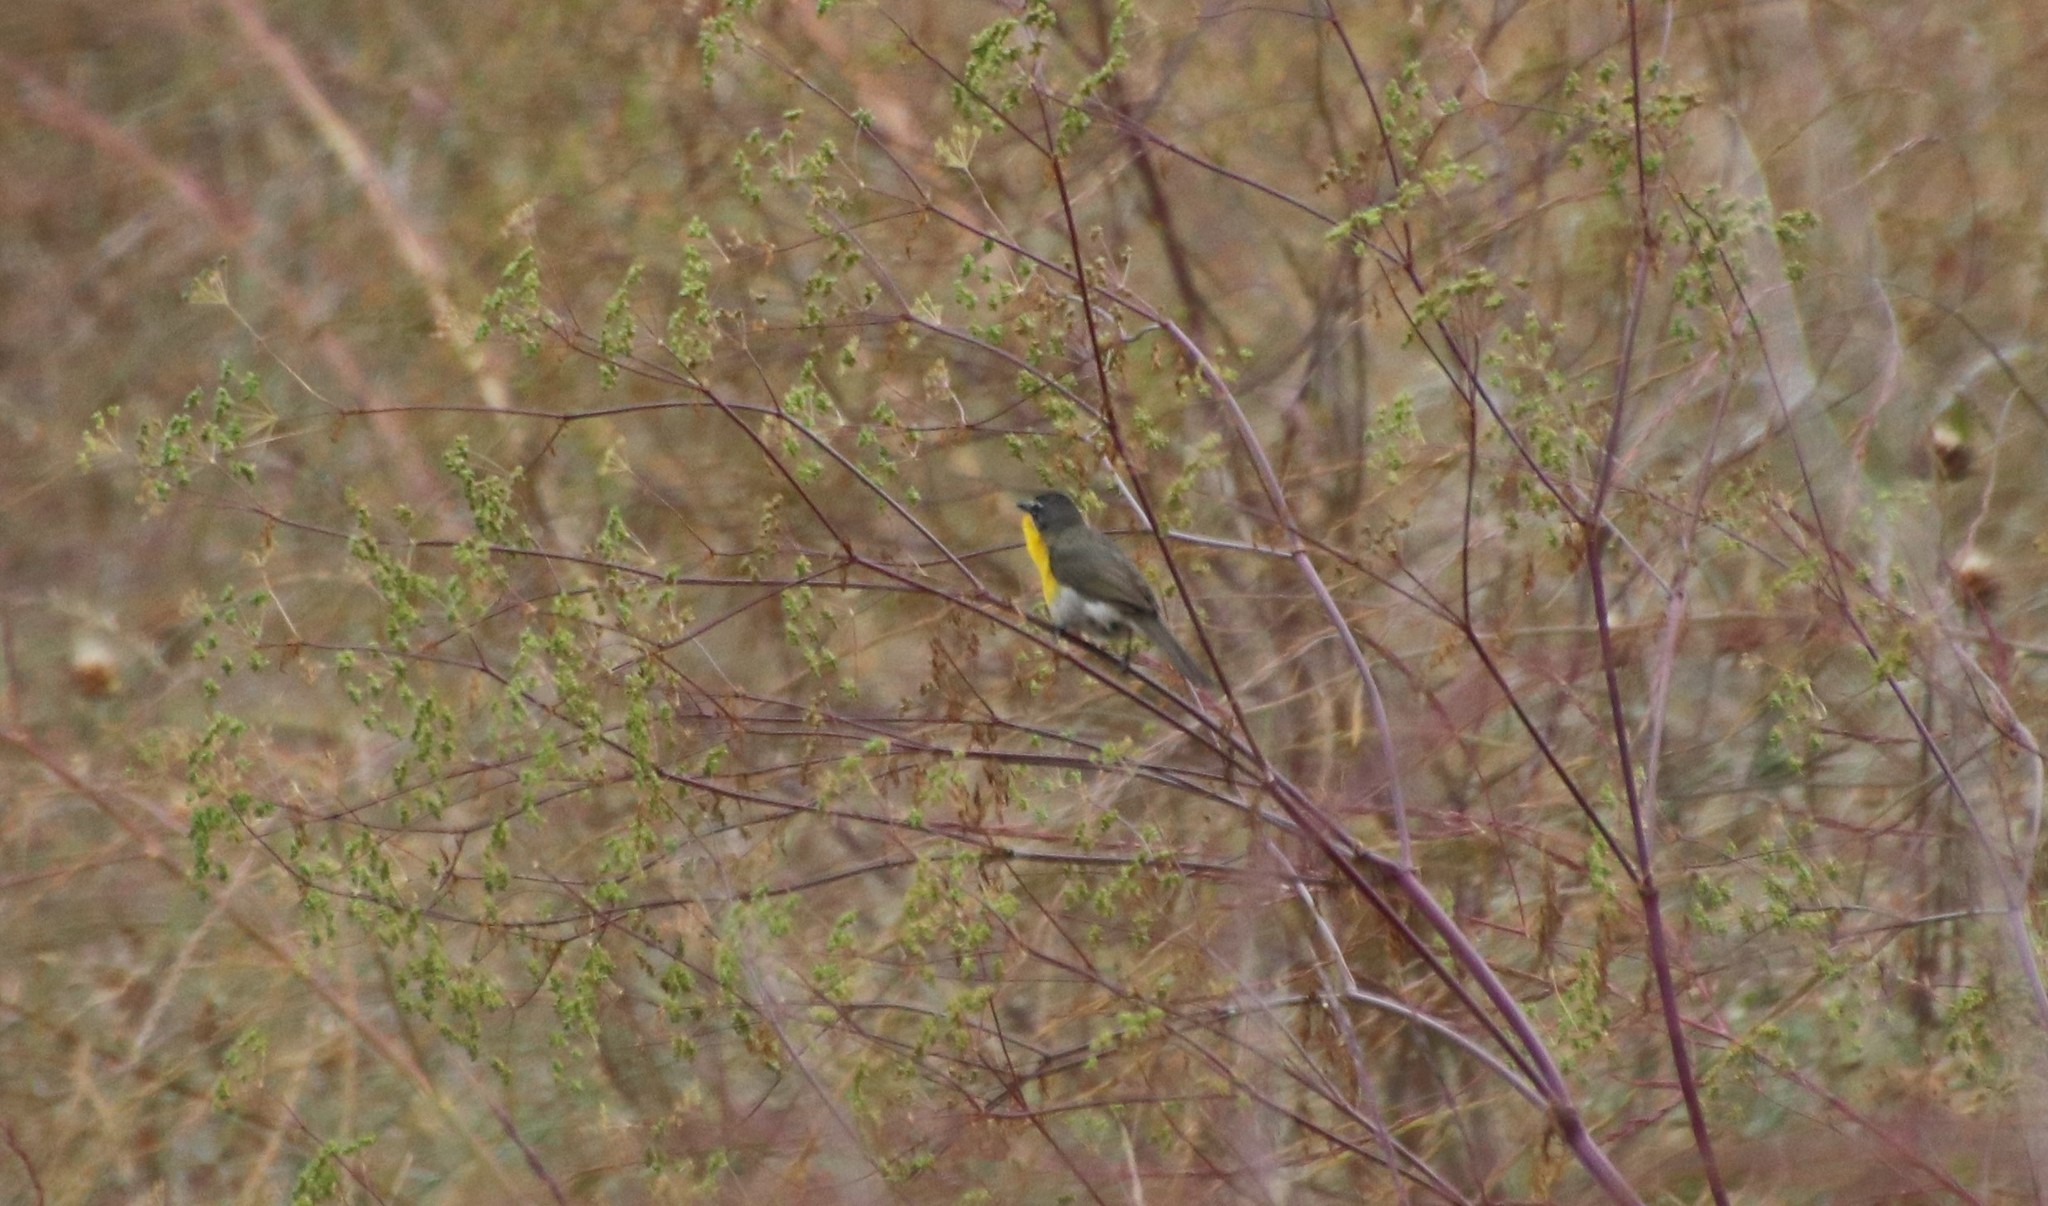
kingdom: Animalia
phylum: Chordata
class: Aves
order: Passeriformes
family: Parulidae
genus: Icteria
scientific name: Icteria virens
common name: Yellow-breasted chat
